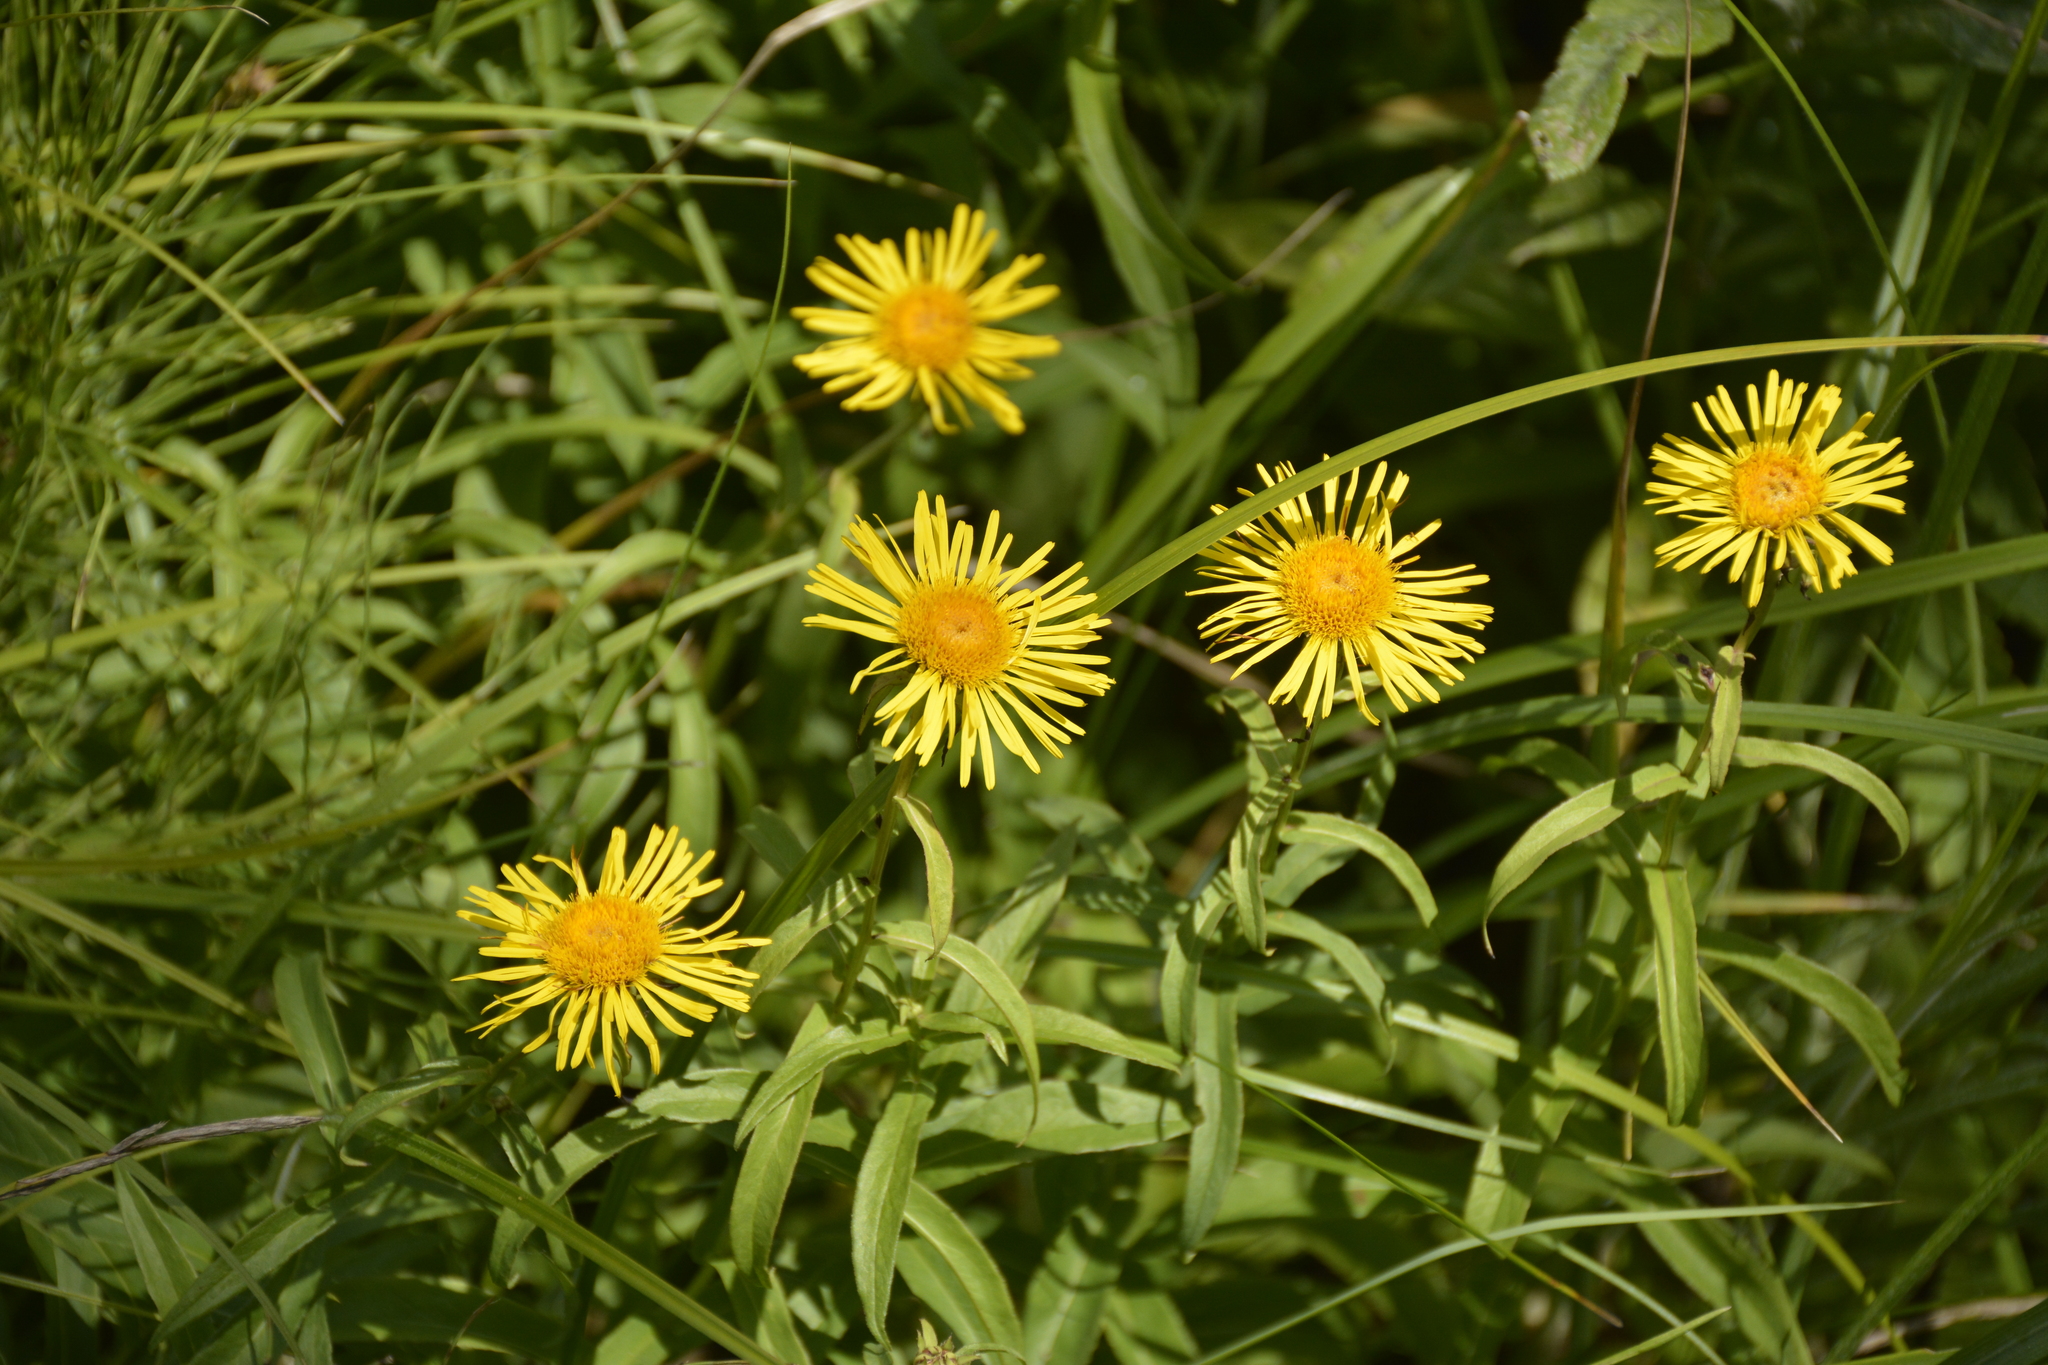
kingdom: Plantae
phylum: Tracheophyta
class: Magnoliopsida
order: Asterales
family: Asteraceae
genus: Pentanema
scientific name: Pentanema salicinum
